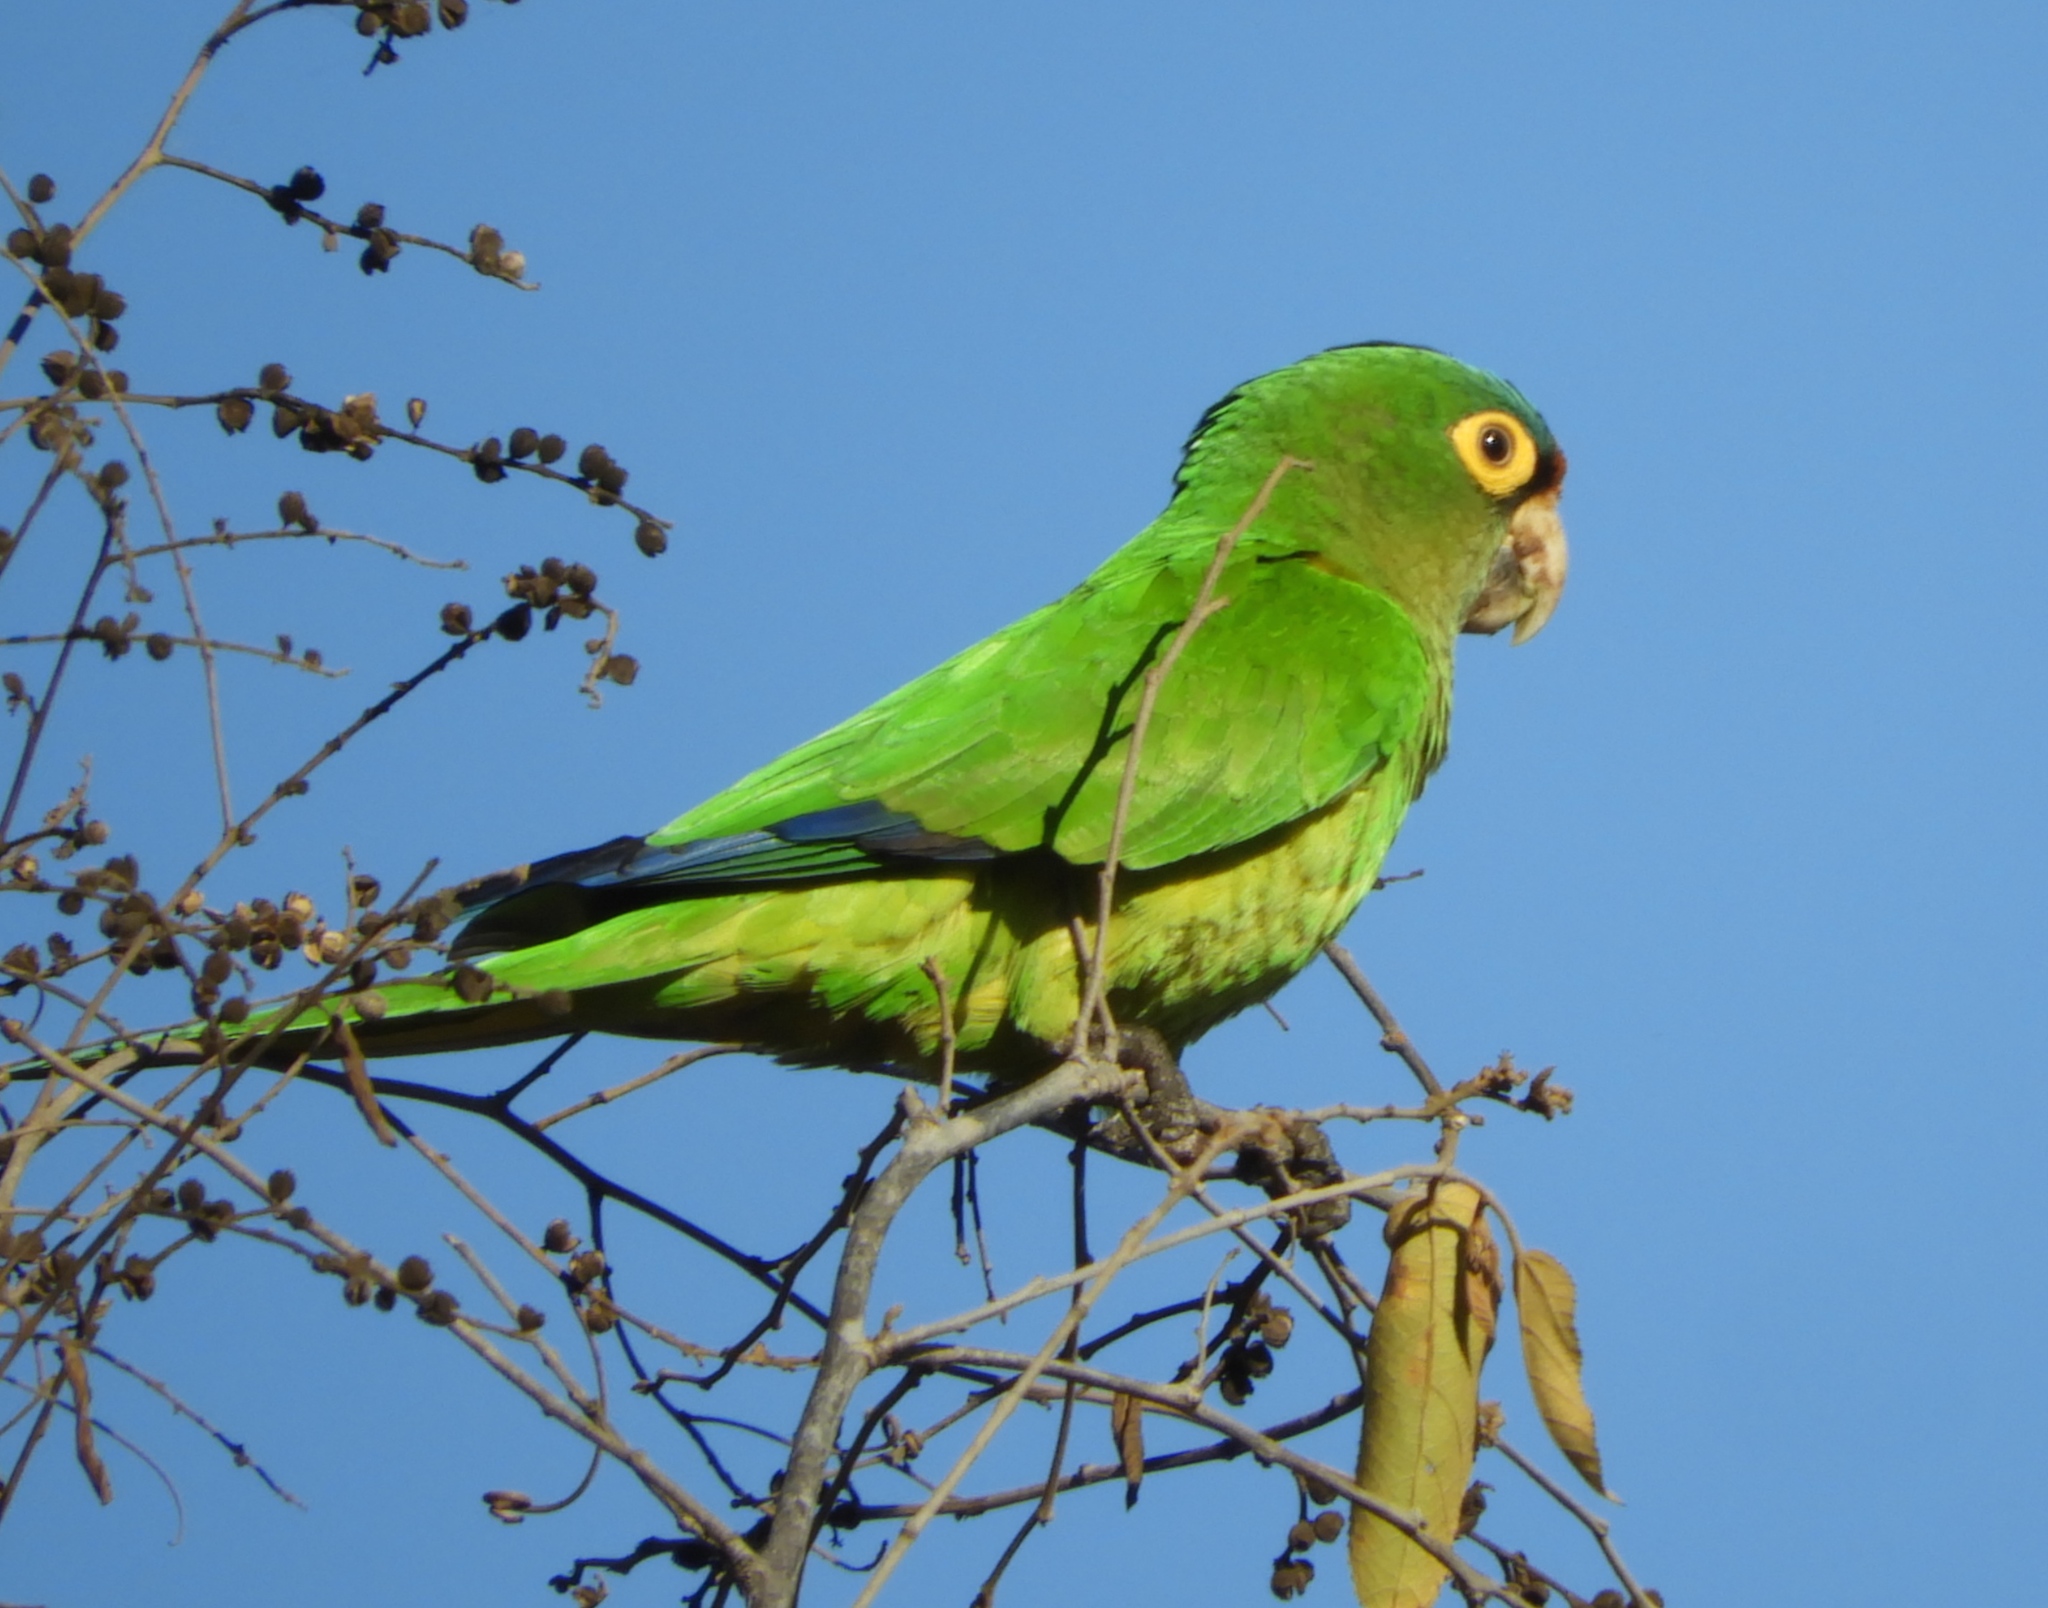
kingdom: Animalia
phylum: Chordata
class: Aves
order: Psittaciformes
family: Psittacidae
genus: Aratinga
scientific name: Aratinga canicularis
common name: Orange-fronted parakeet
